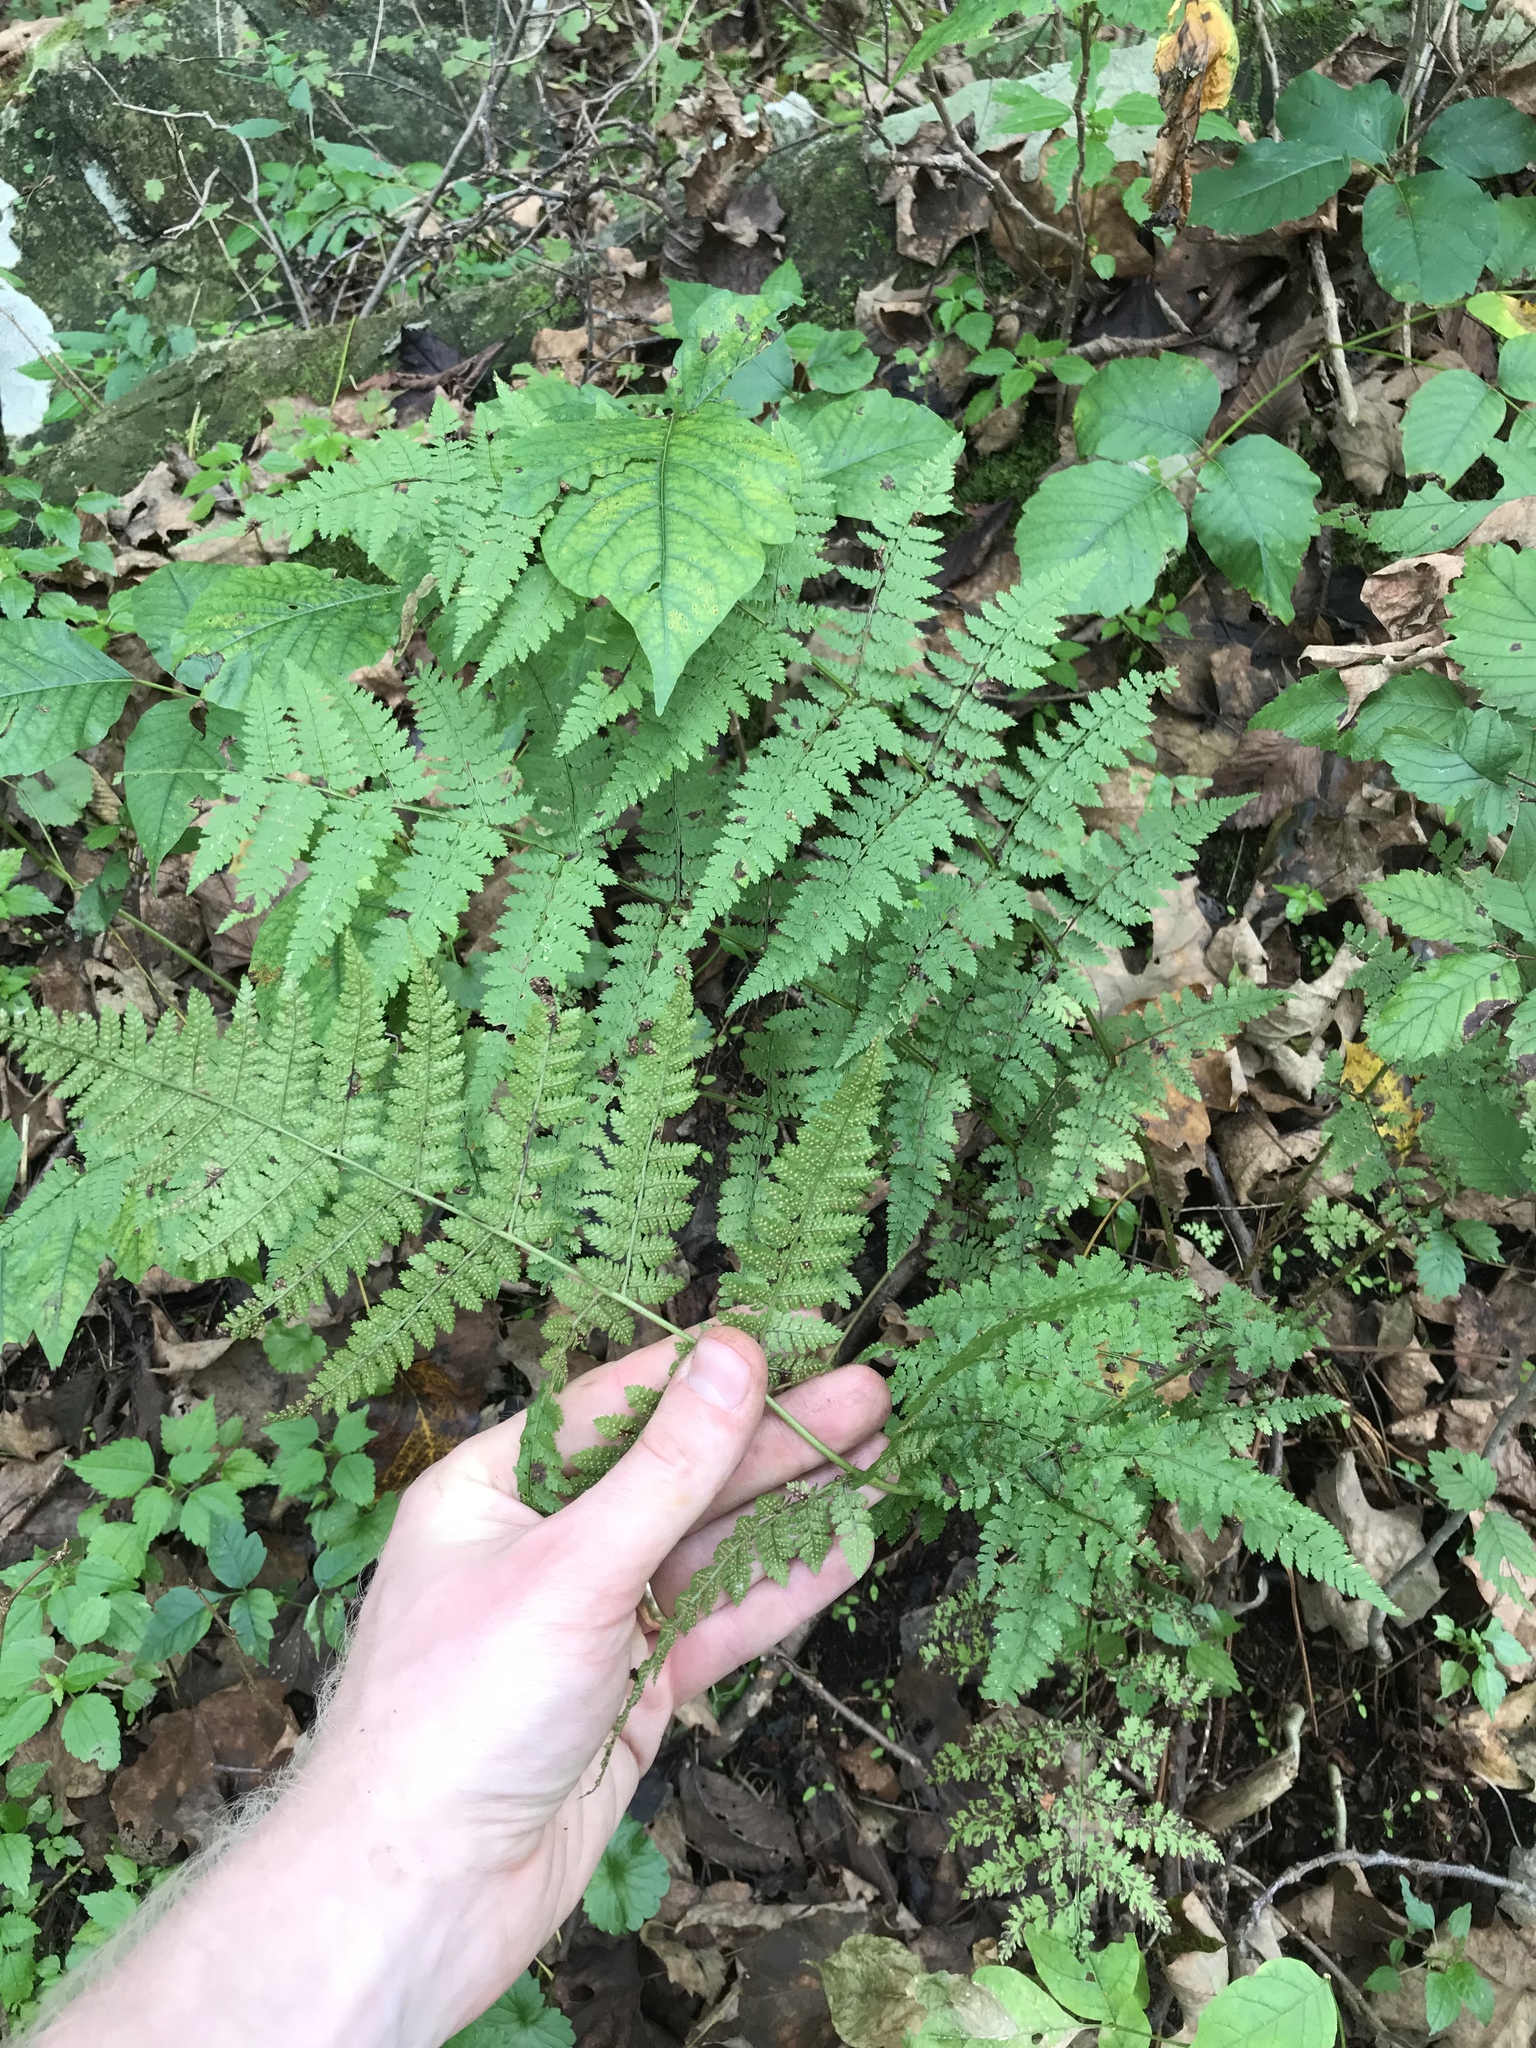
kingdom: Plantae
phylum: Tracheophyta
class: Polypodiopsida
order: Polypodiales
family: Dryopteridaceae
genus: Dryopteris
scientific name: Dryopteris intermedia
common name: Evergreen wood fern
